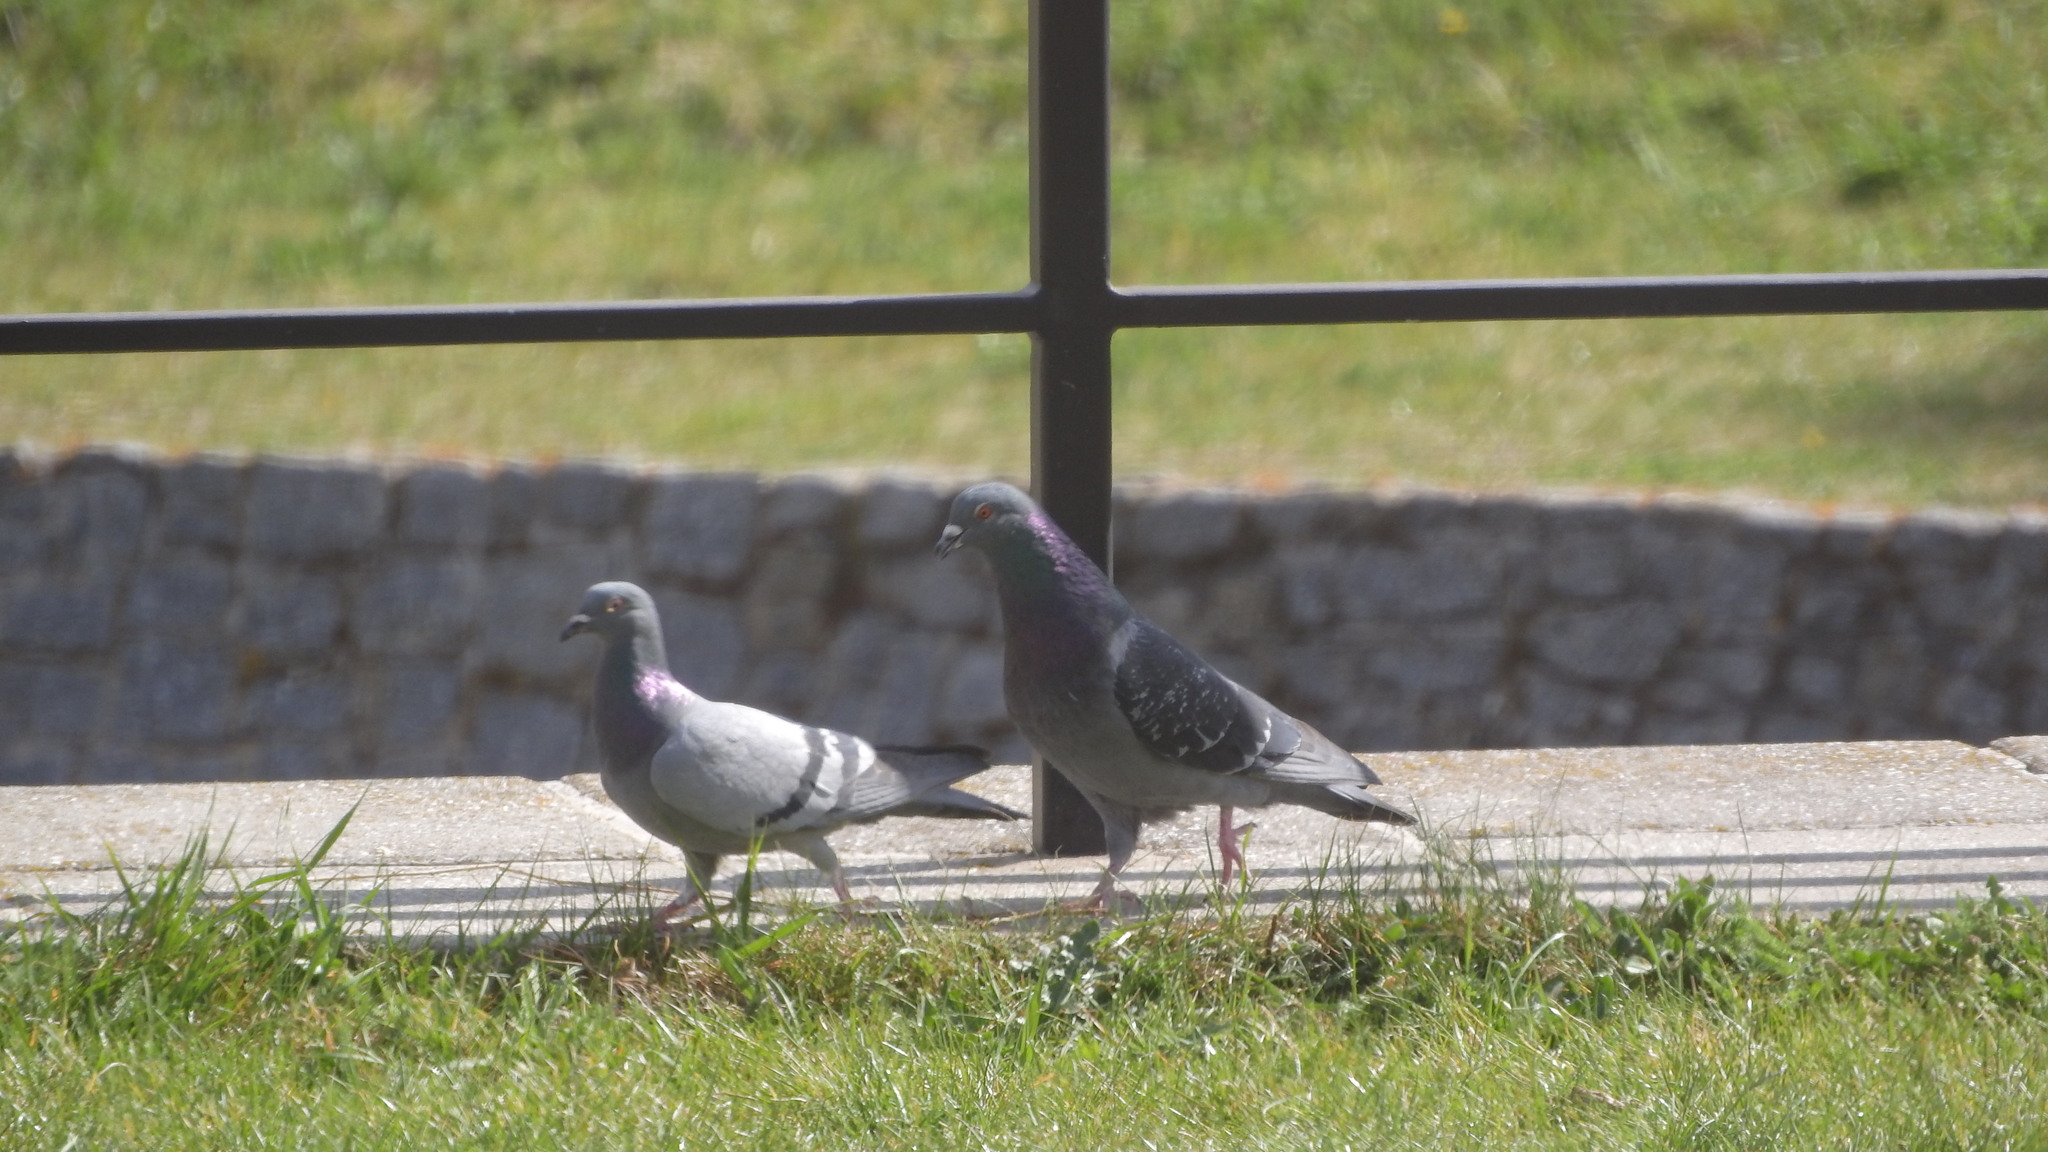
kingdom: Animalia
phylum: Chordata
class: Aves
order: Columbiformes
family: Columbidae
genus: Columba
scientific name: Columba livia
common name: Rock pigeon
